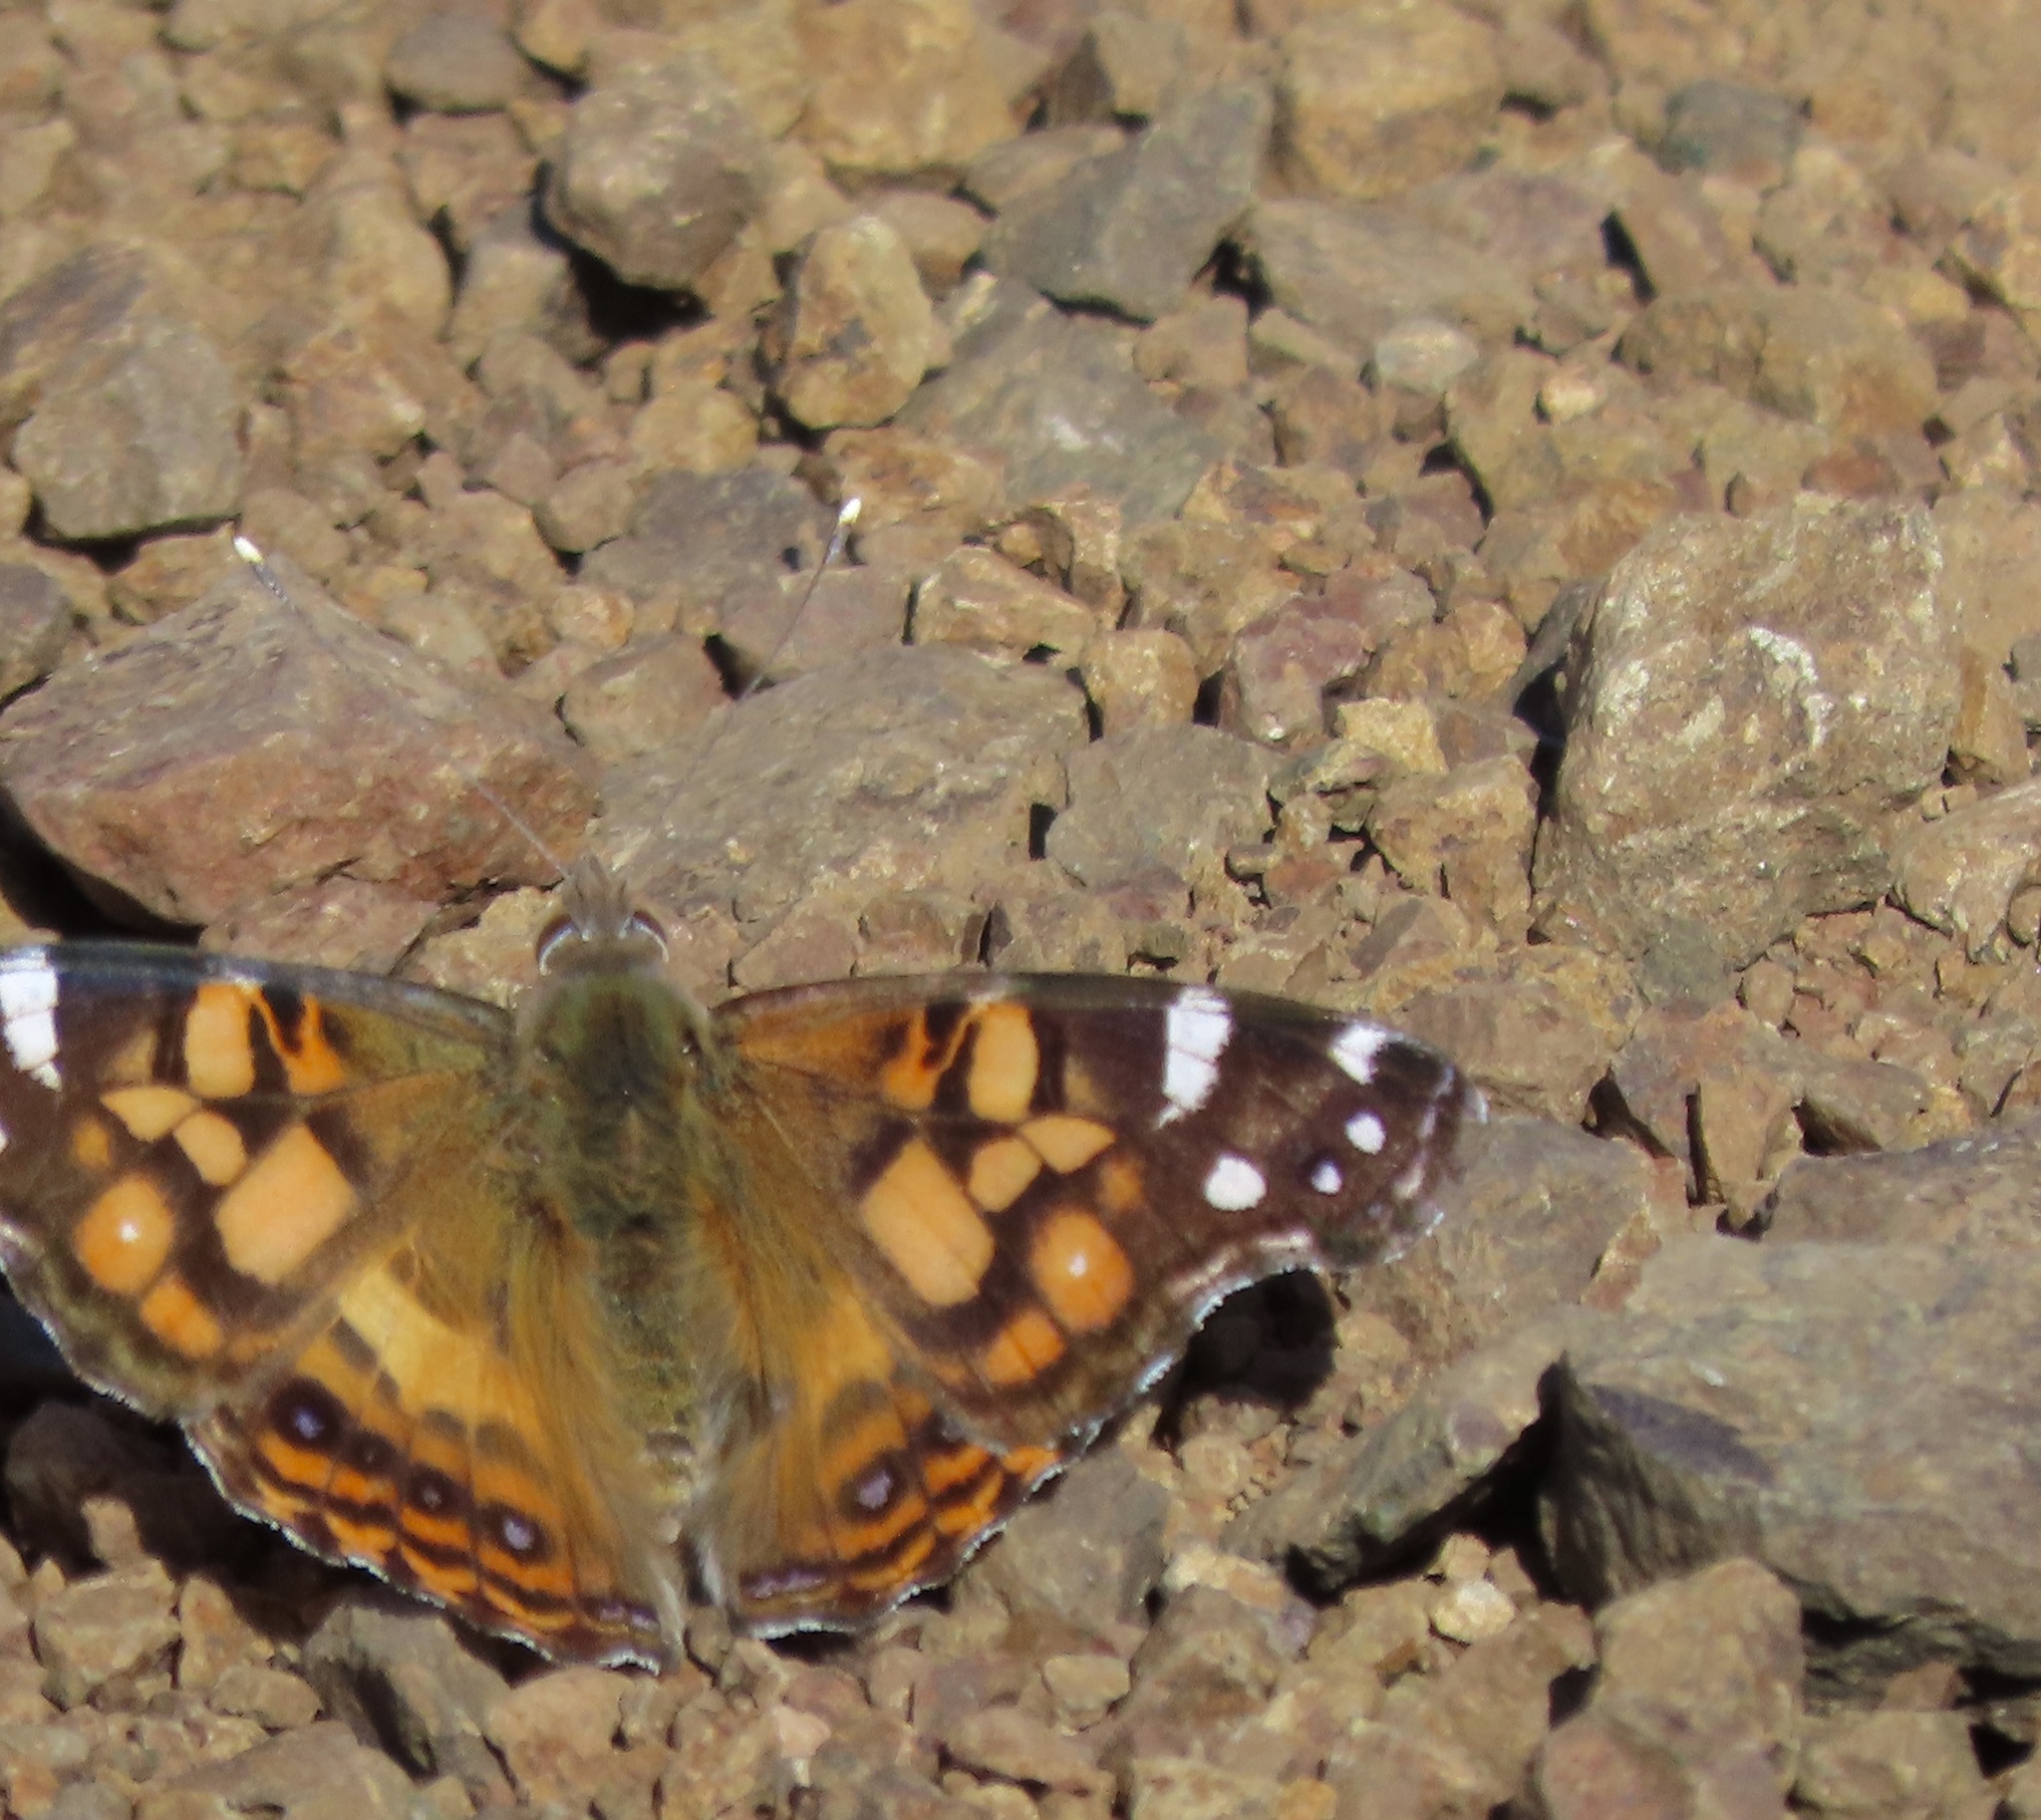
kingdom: Animalia
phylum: Arthropoda
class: Insecta
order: Lepidoptera
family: Nymphalidae
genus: Vanessa
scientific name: Vanessa virginiensis
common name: American lady
